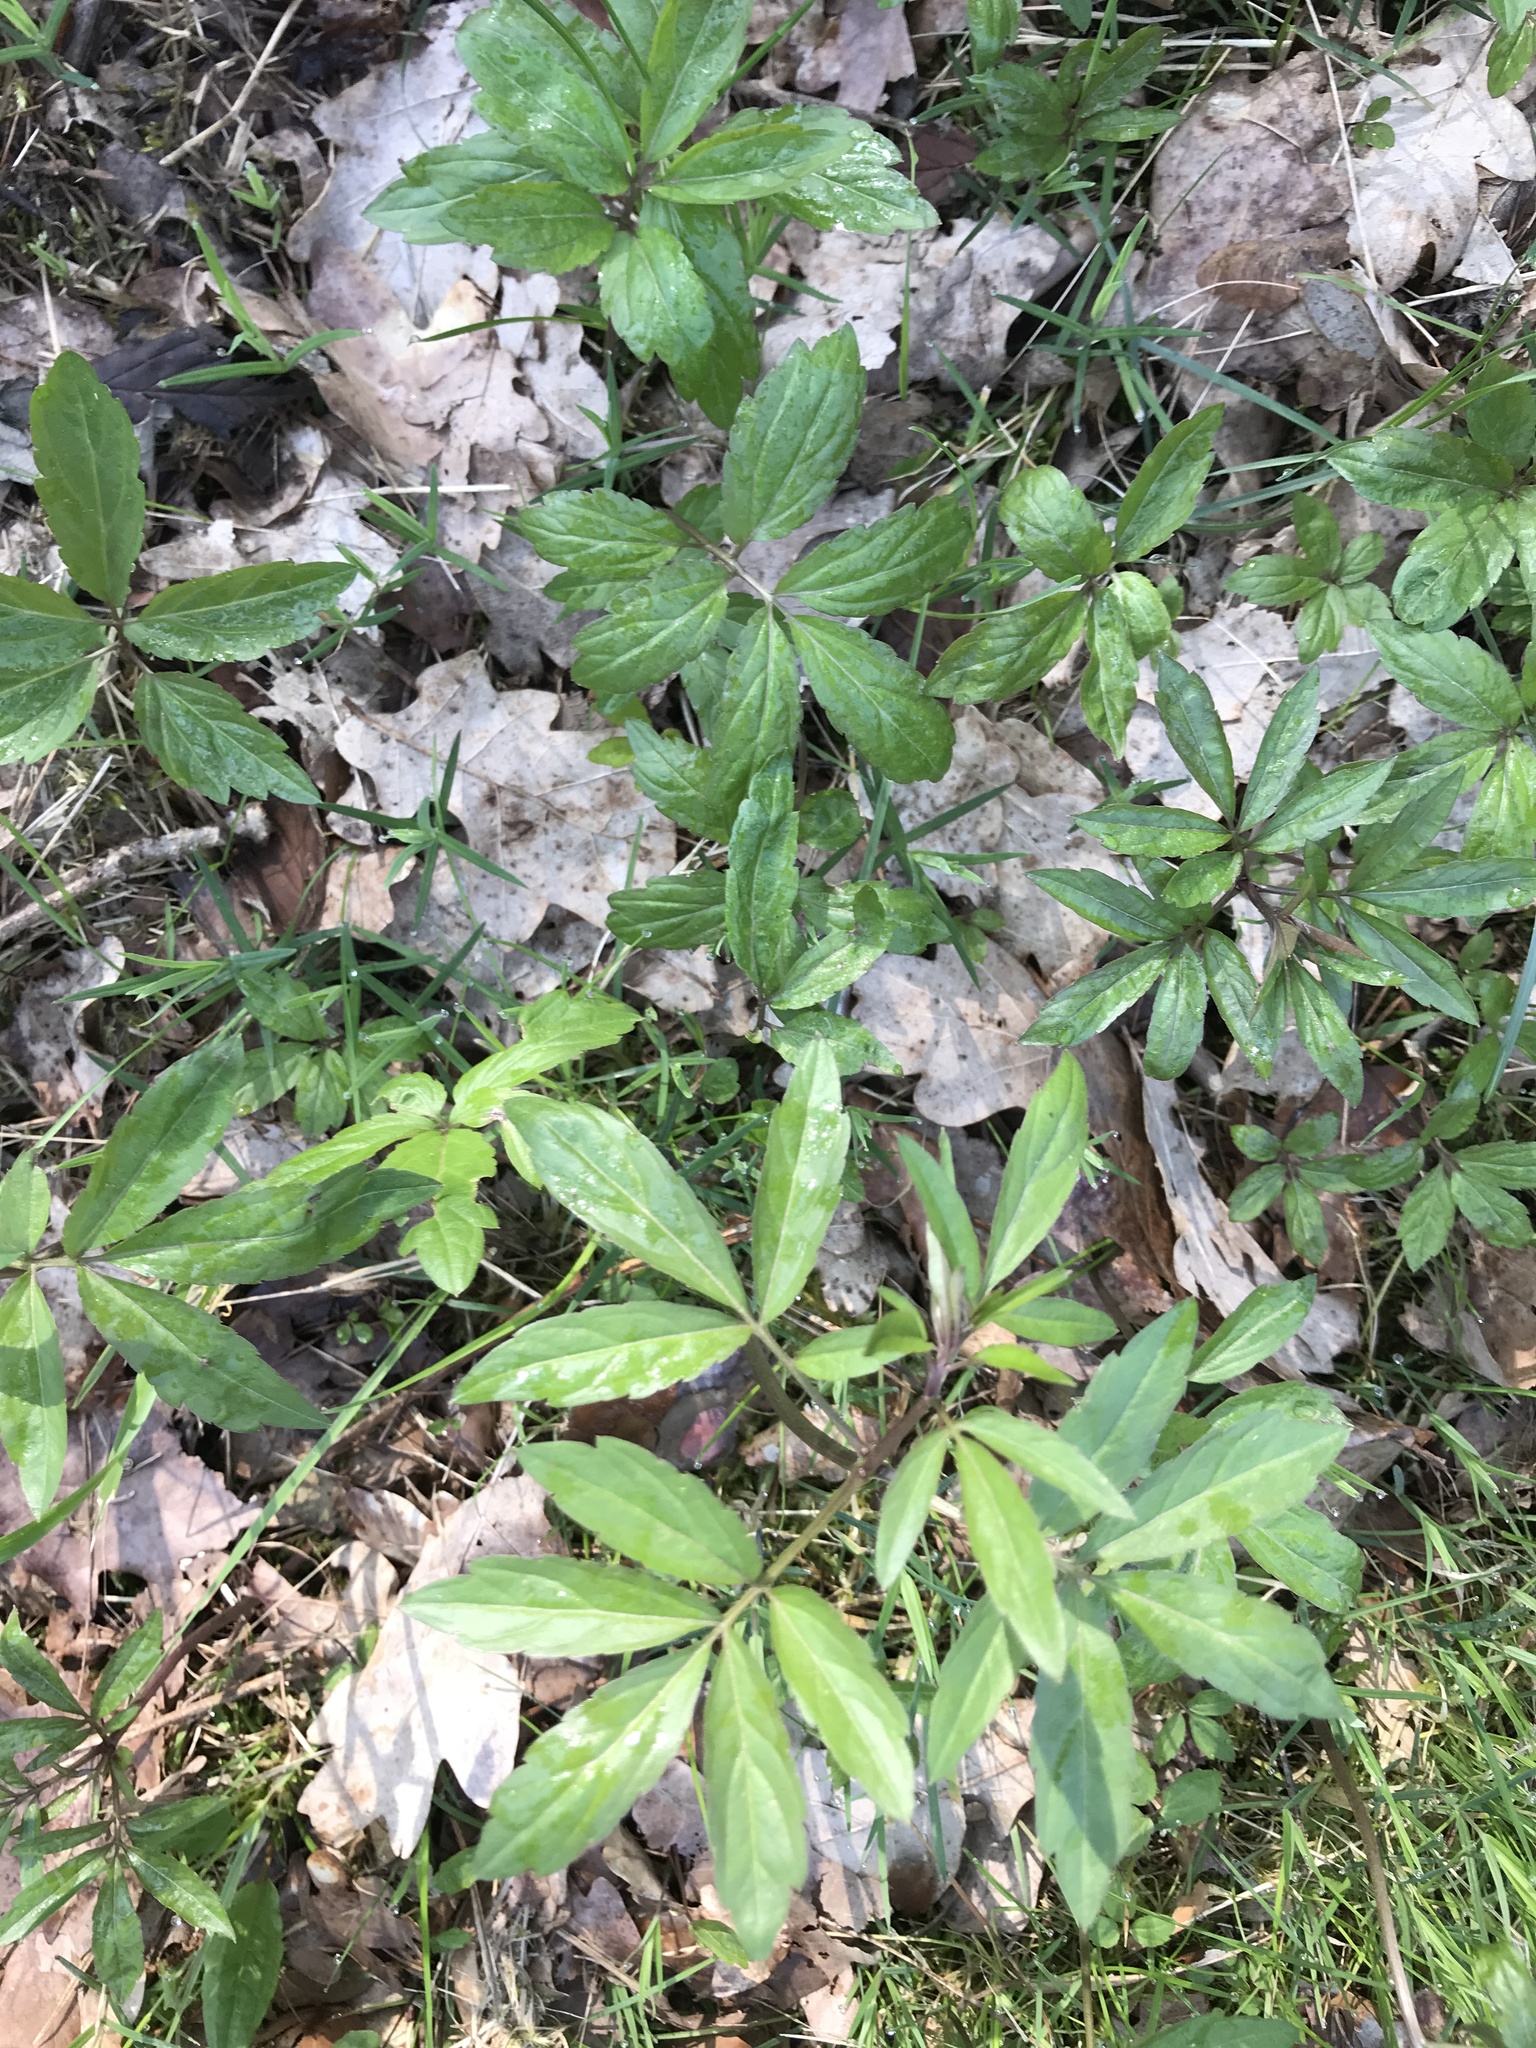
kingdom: Plantae
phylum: Tracheophyta
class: Magnoliopsida
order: Brassicales
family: Brassicaceae
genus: Cardamine
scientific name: Cardamine bulbifera
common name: Coralroot bittercress
